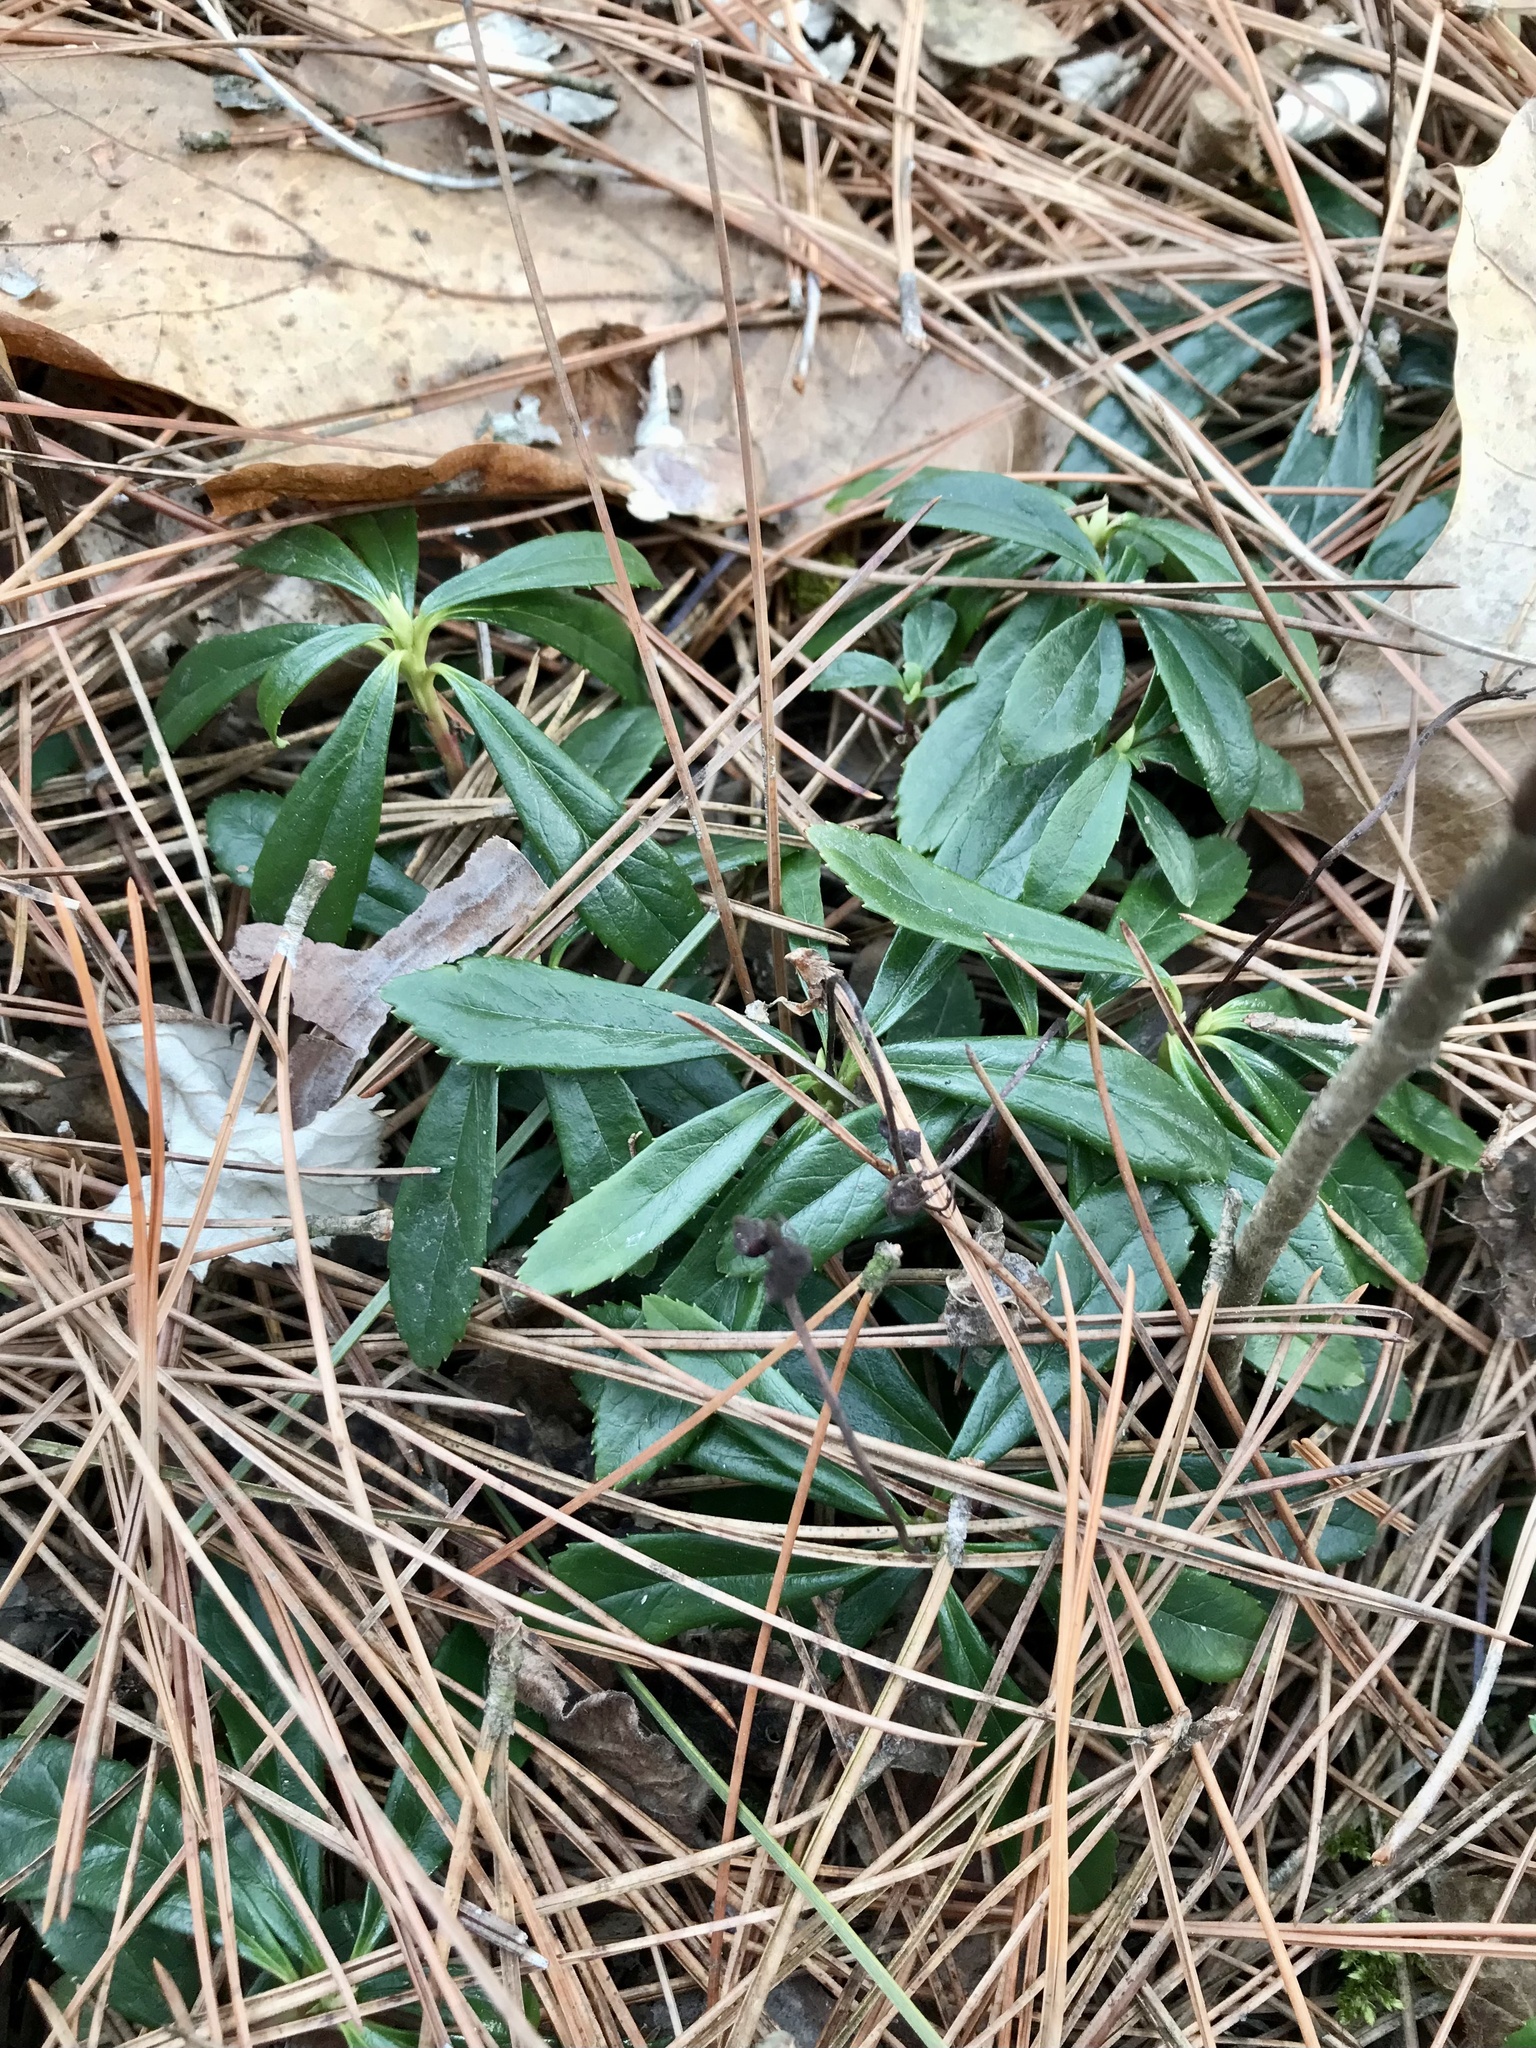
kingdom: Plantae
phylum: Tracheophyta
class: Magnoliopsida
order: Ericales
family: Ericaceae
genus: Chimaphila
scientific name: Chimaphila umbellata
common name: Pipsissewa
